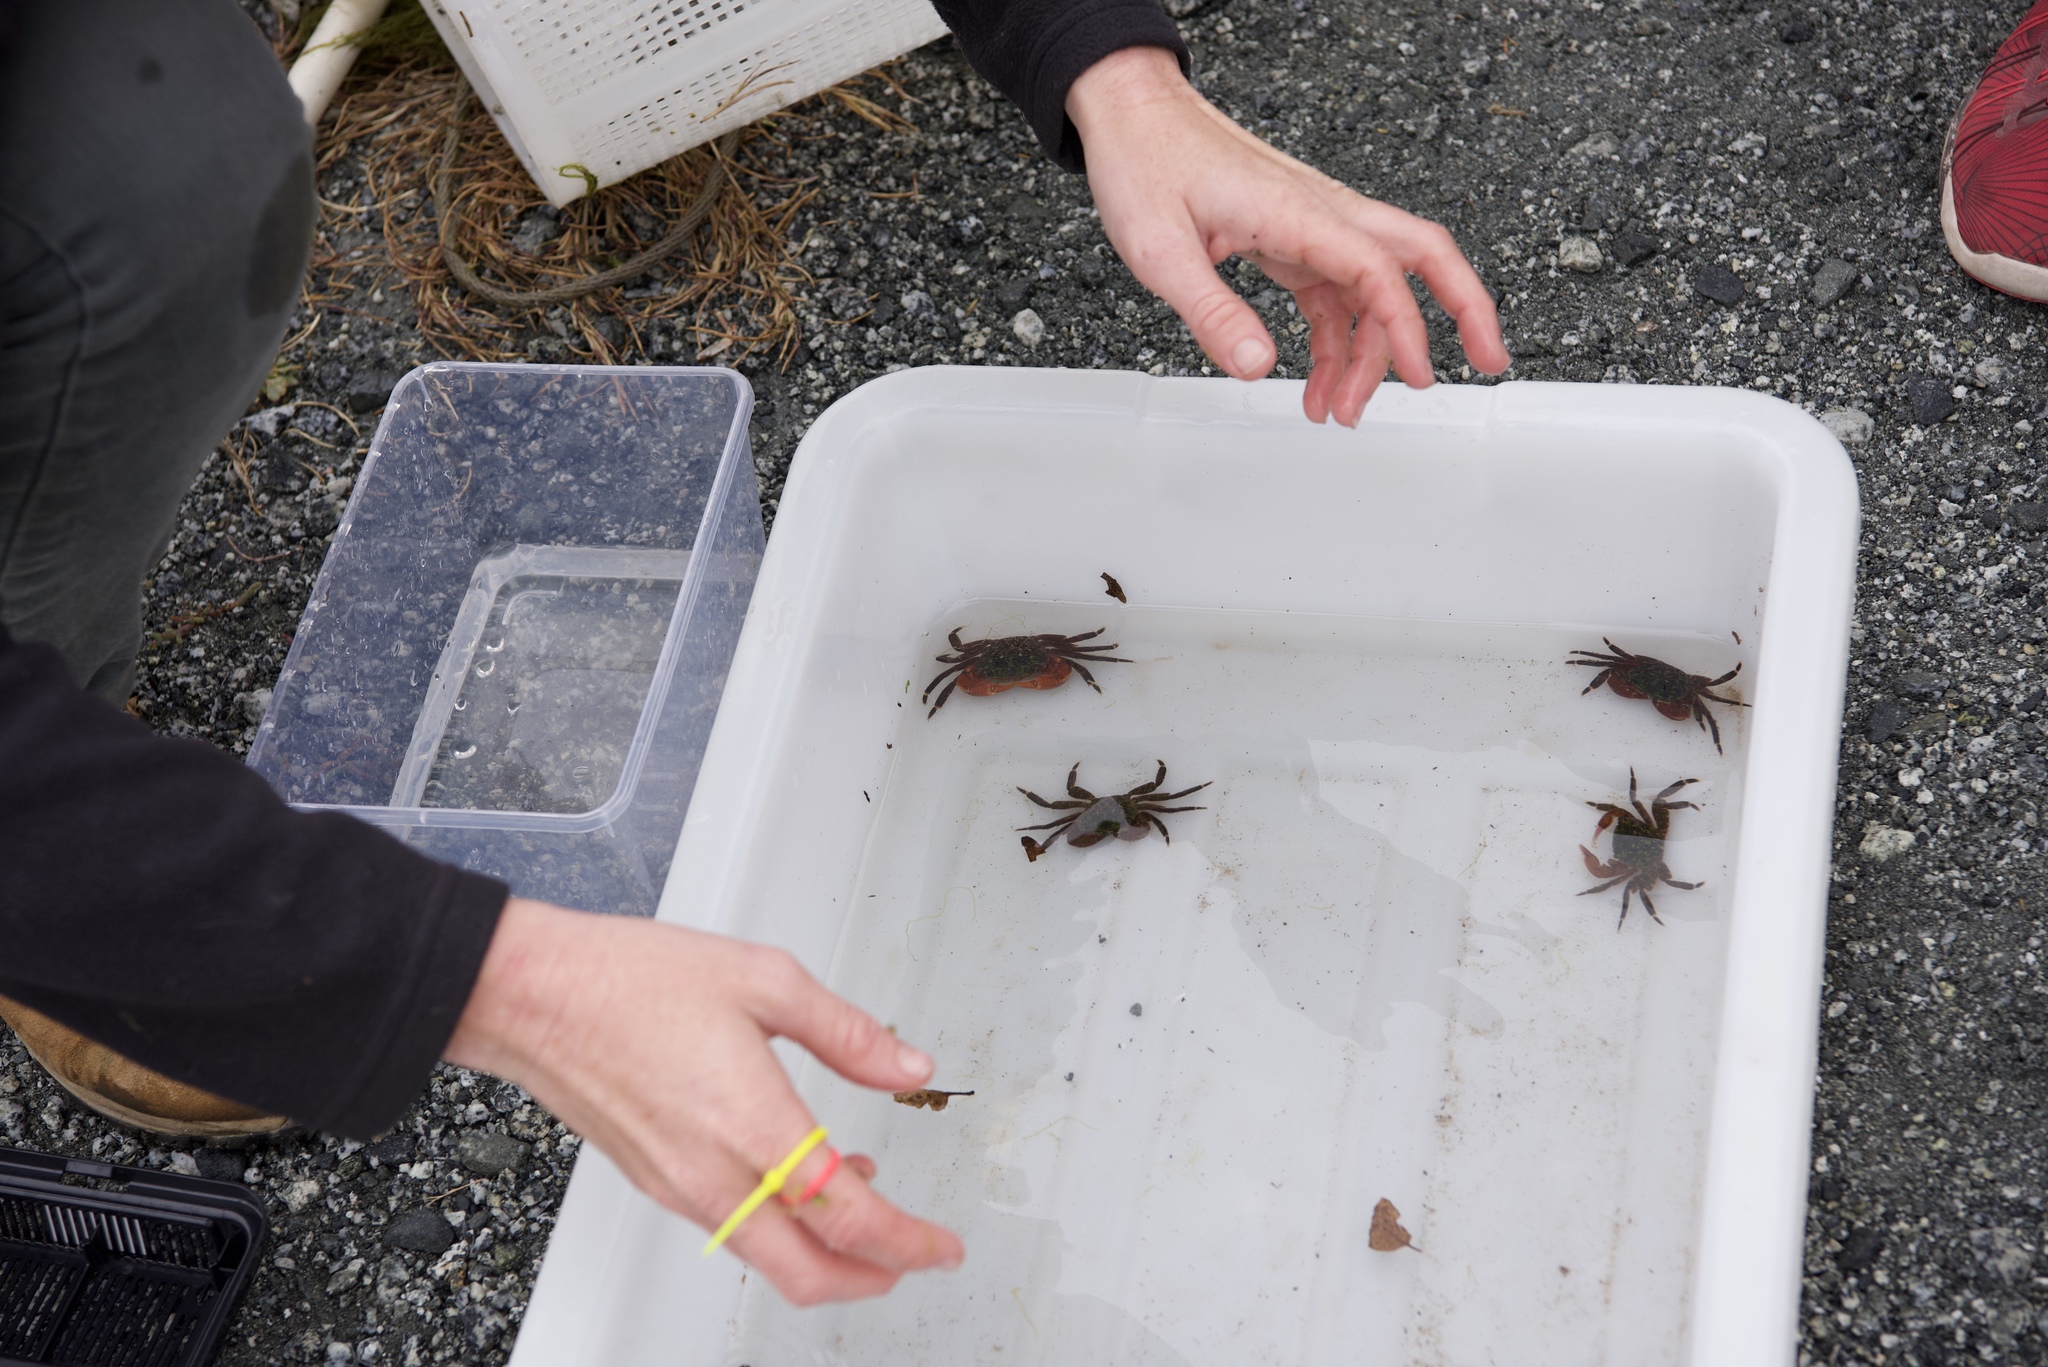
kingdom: Animalia
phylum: Arthropoda
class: Malacostraca
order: Decapoda
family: Grapsidae
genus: Pachygrapsus
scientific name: Pachygrapsus crassipes
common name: Striped shore crab
